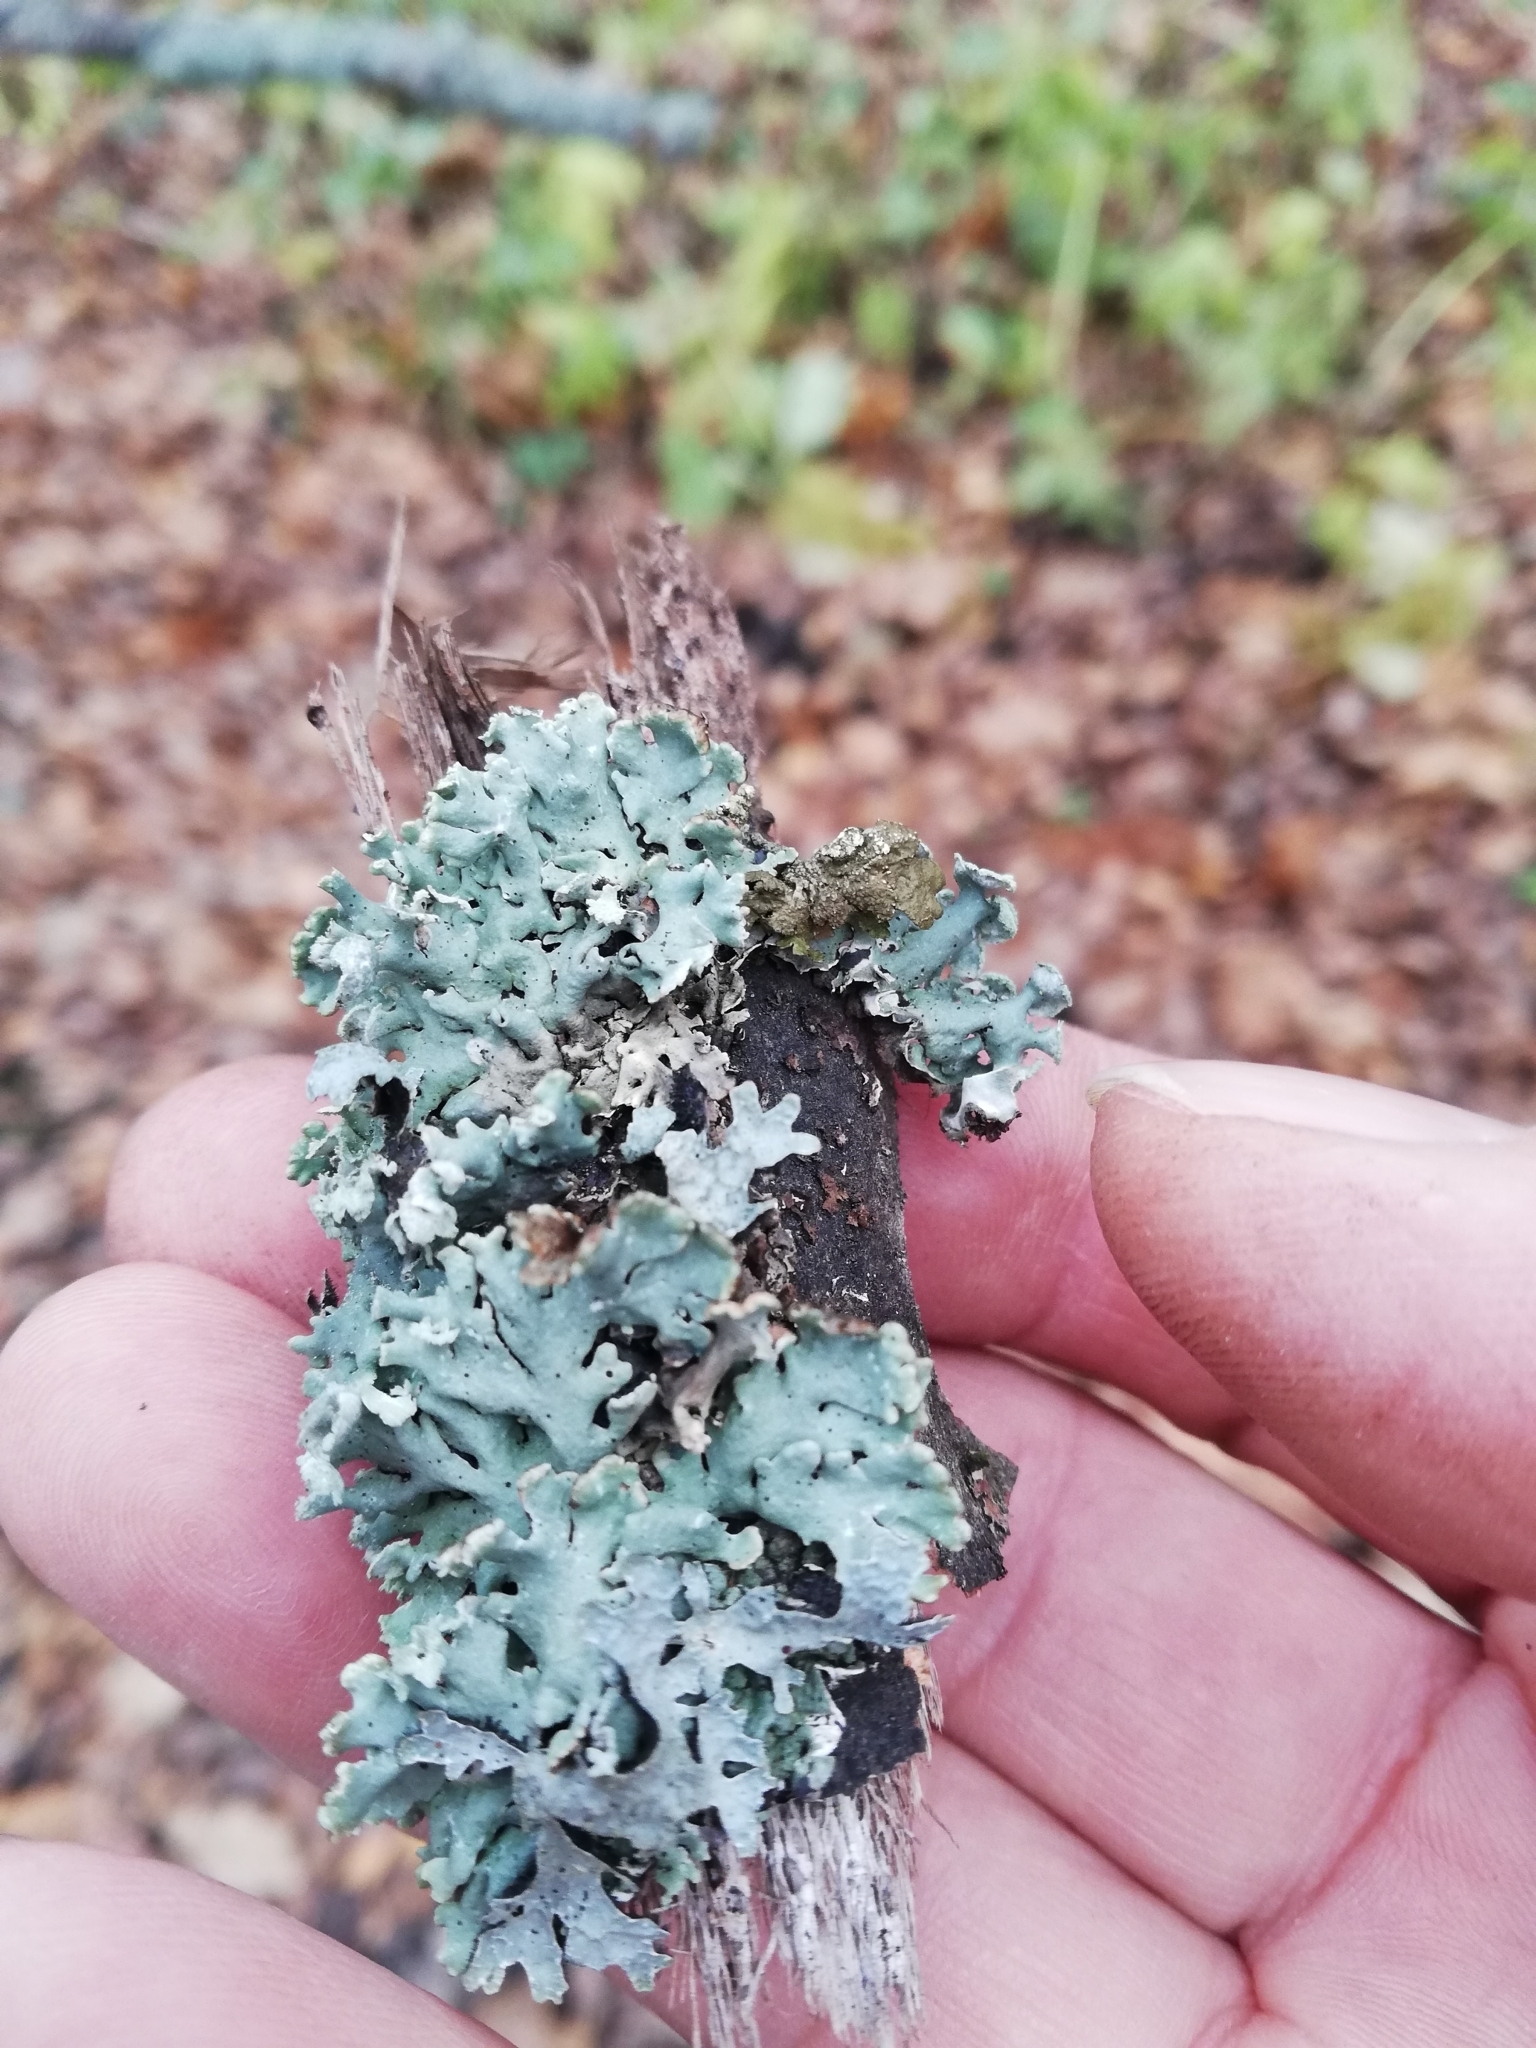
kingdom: Fungi
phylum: Ascomycota
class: Lecanoromycetes
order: Lecanorales
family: Parmeliaceae
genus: Hypogymnia
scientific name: Hypogymnia physodes
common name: Dark crottle
